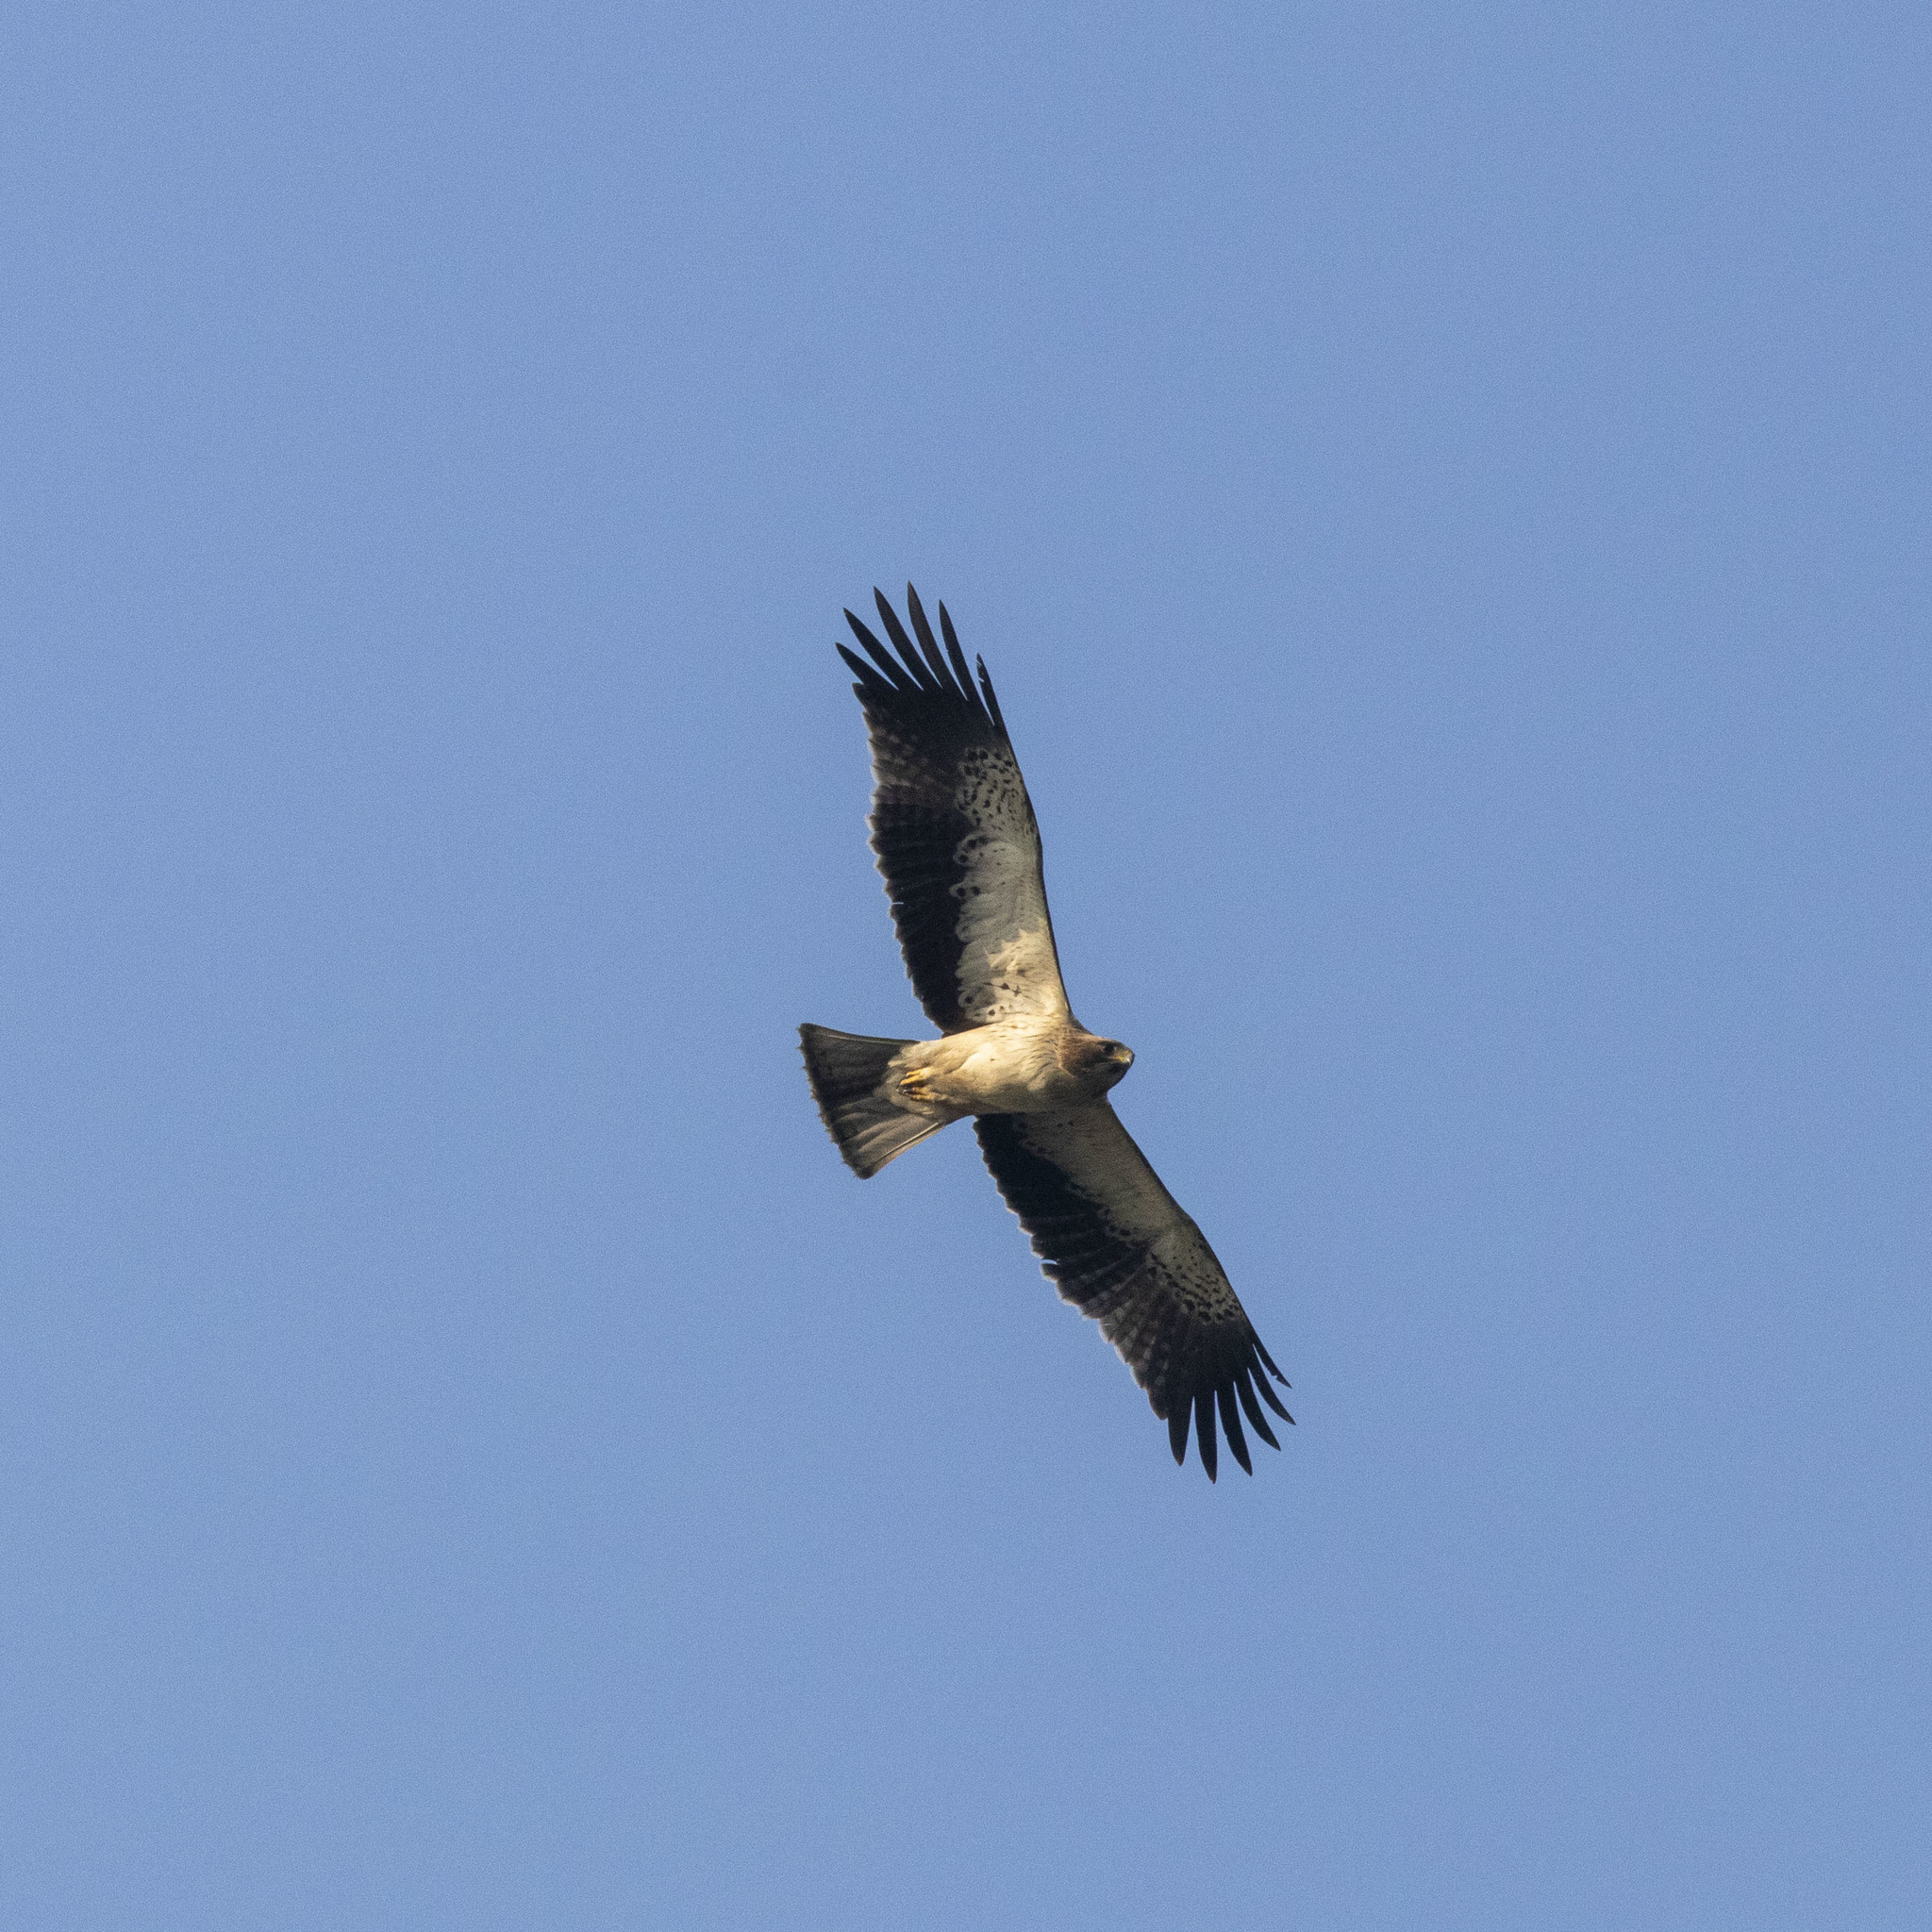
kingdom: Animalia
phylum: Chordata
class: Aves
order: Accipitriformes
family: Accipitridae
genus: Hieraaetus
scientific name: Hieraaetus pennatus
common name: Booted eagle
